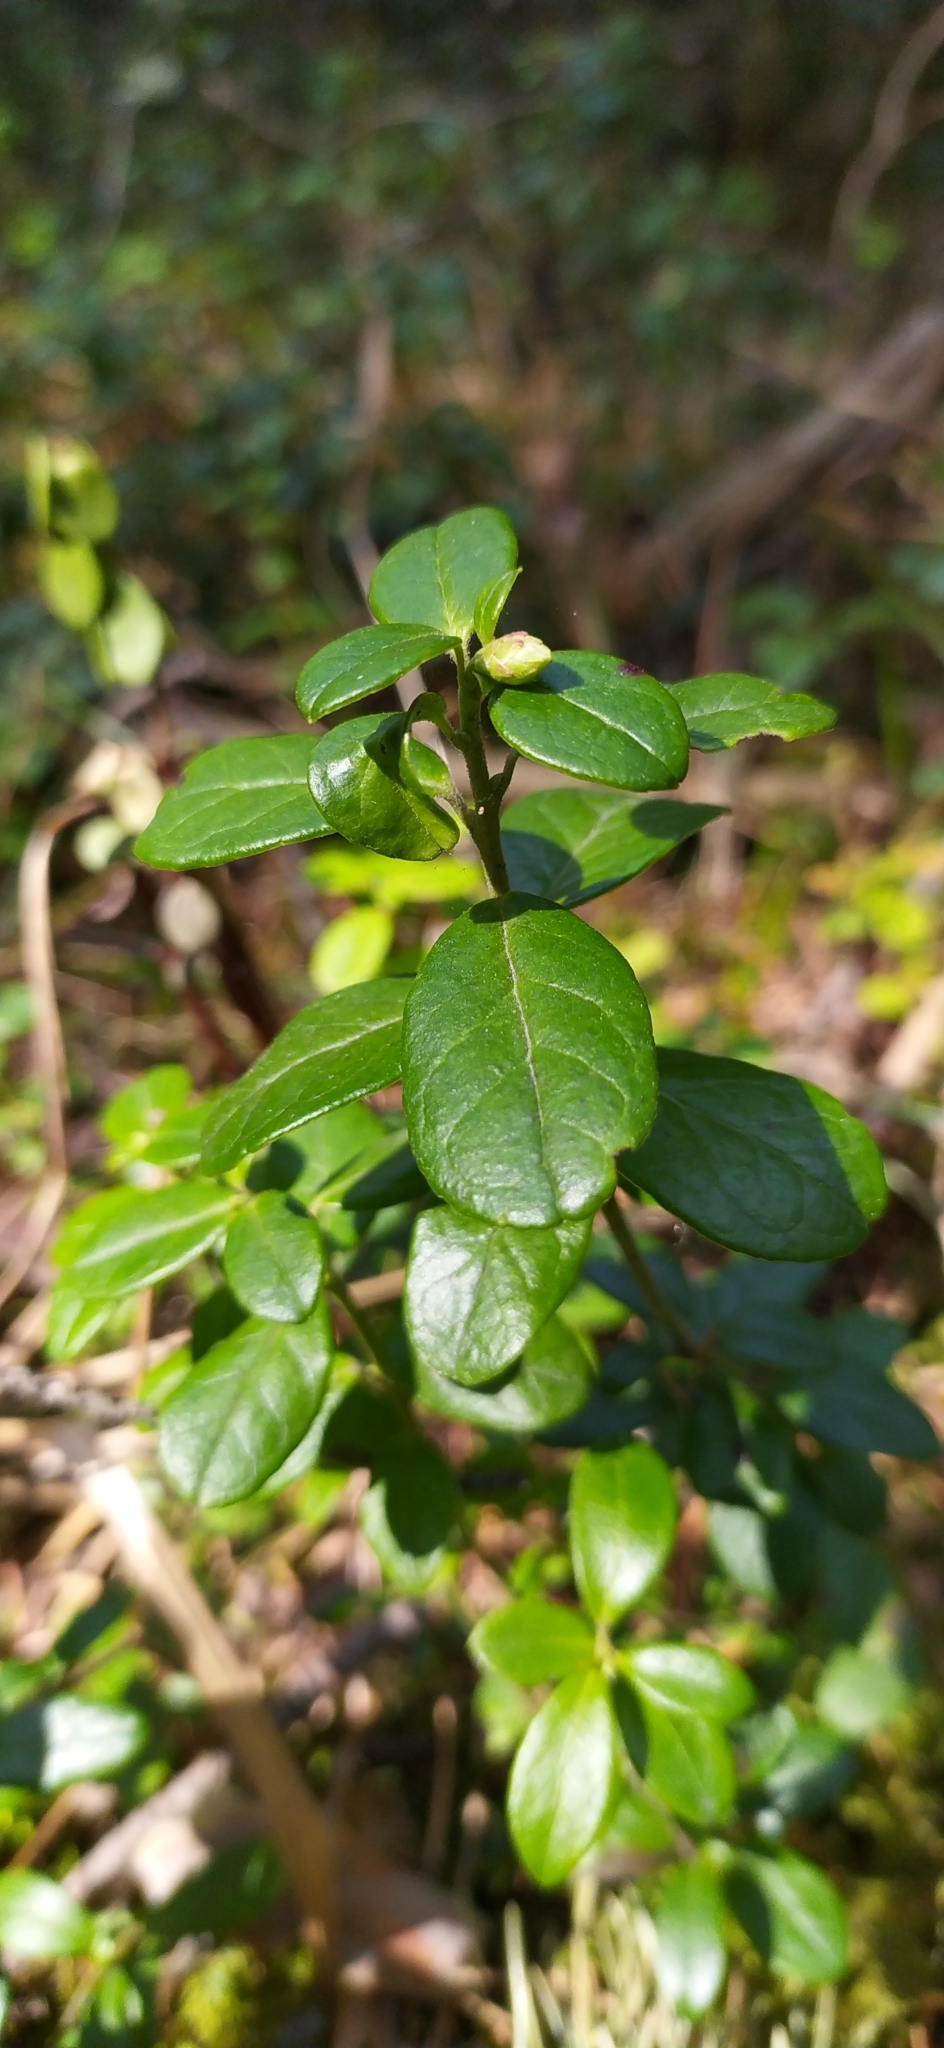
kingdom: Plantae
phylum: Tracheophyta
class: Magnoliopsida
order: Ericales
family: Ericaceae
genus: Vaccinium
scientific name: Vaccinium vitis-idaea
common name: Cowberry
